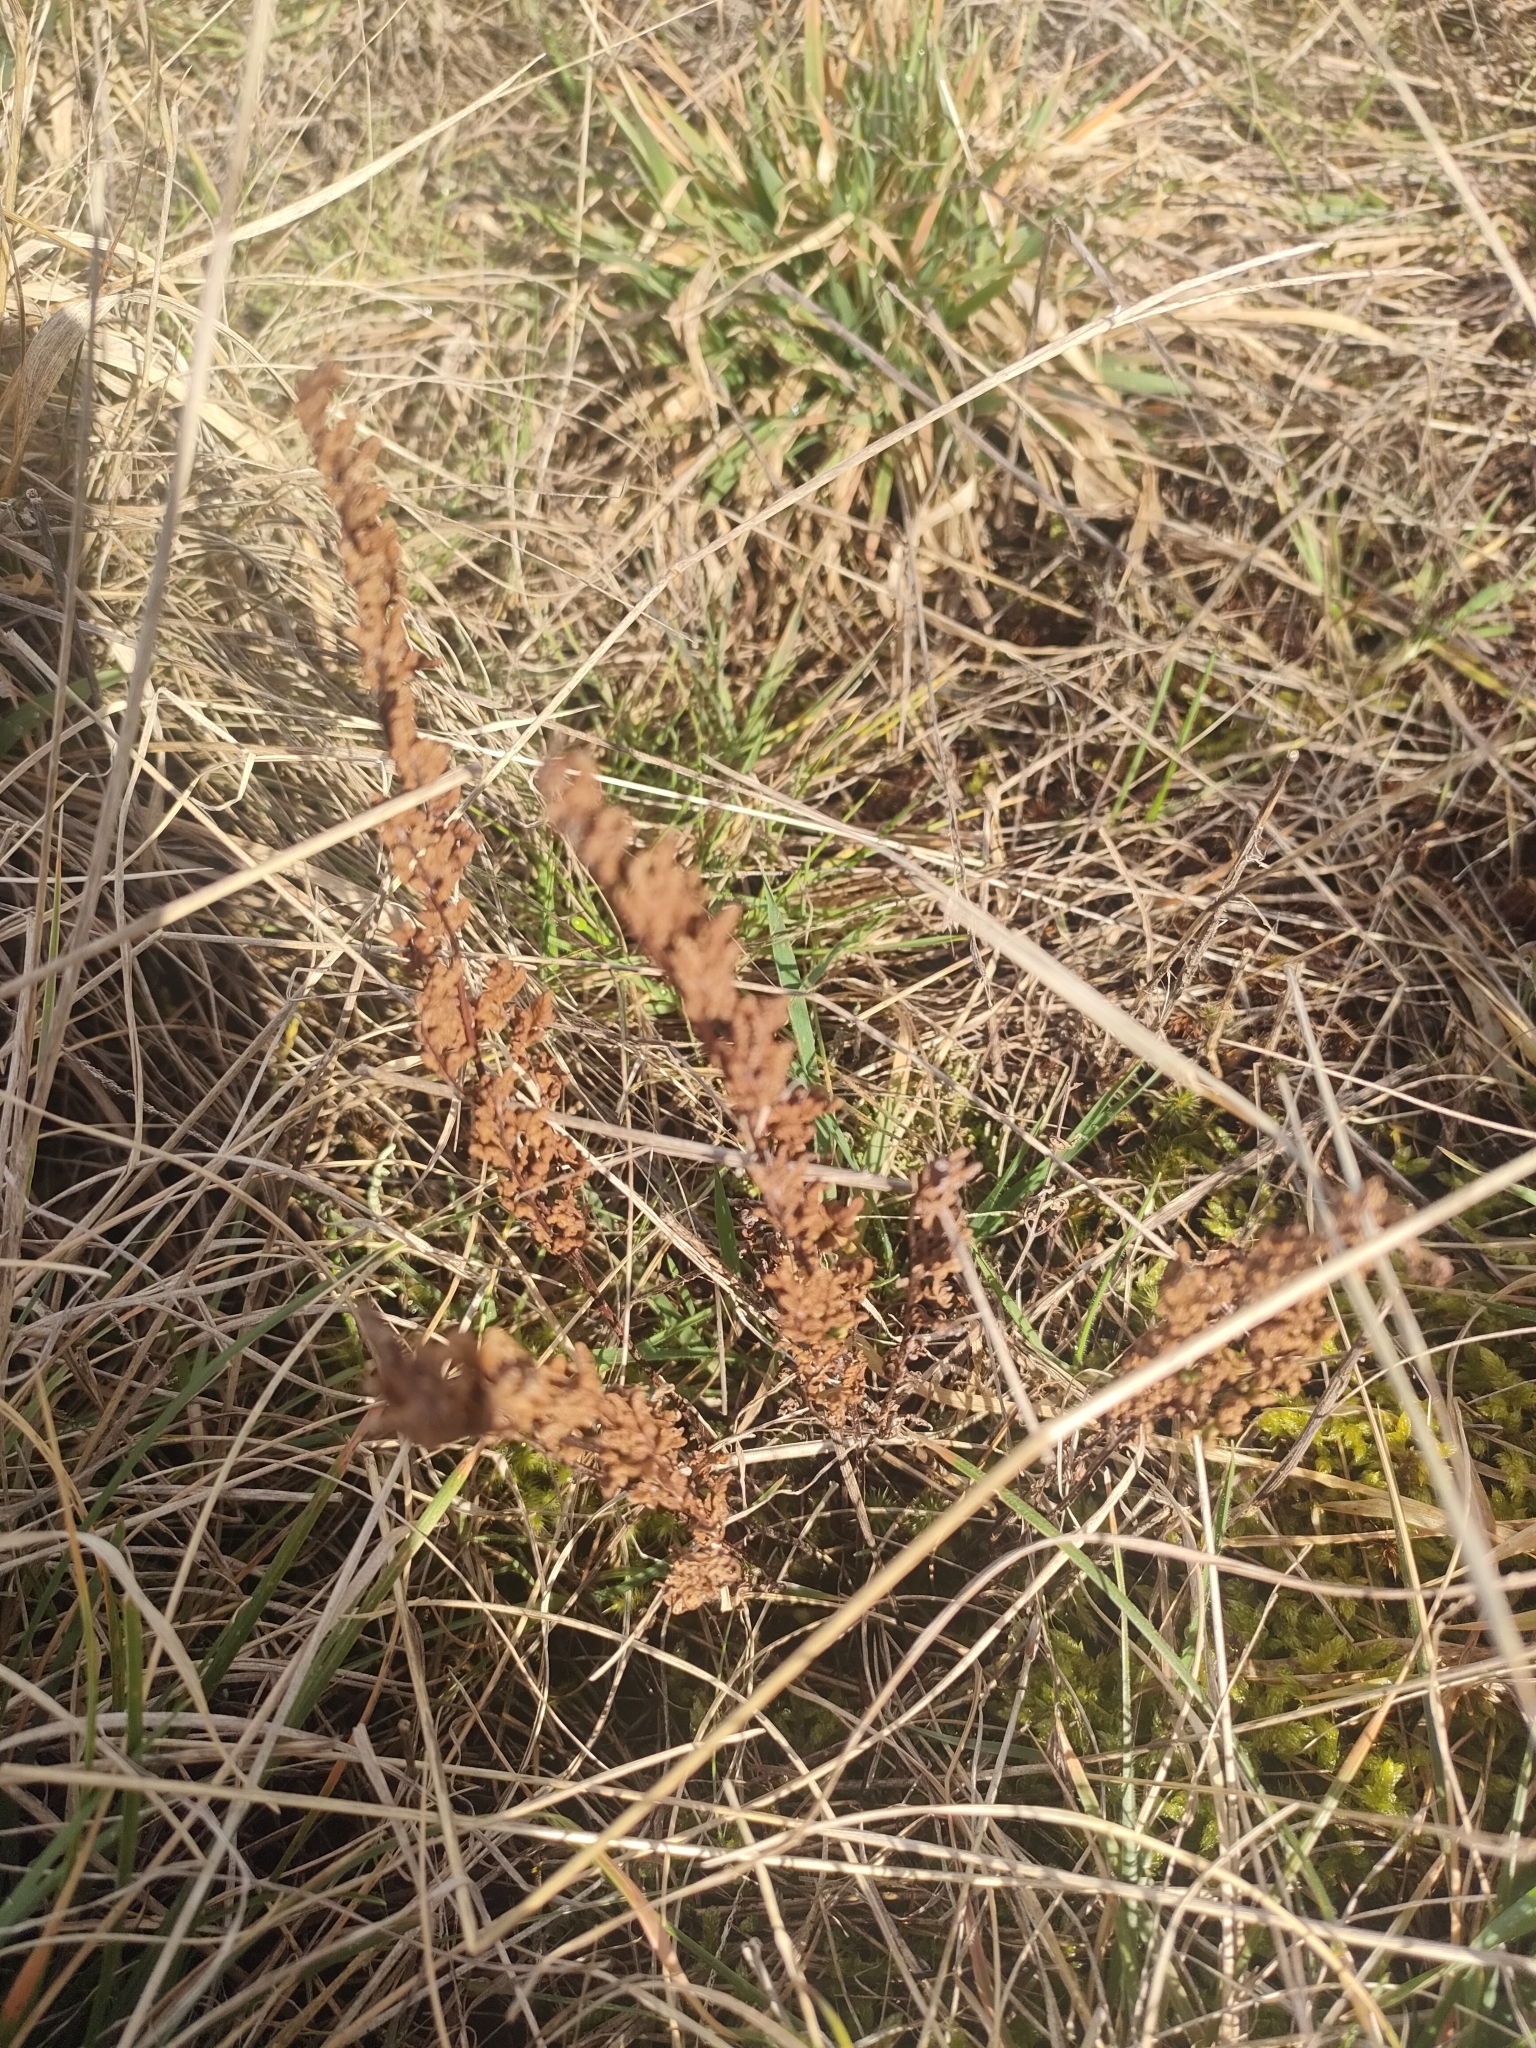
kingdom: Plantae
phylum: Tracheophyta
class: Polypodiopsida
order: Polypodiales
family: Pteridaceae
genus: Cheilanthes
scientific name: Cheilanthes sieberi
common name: Mulga fern
